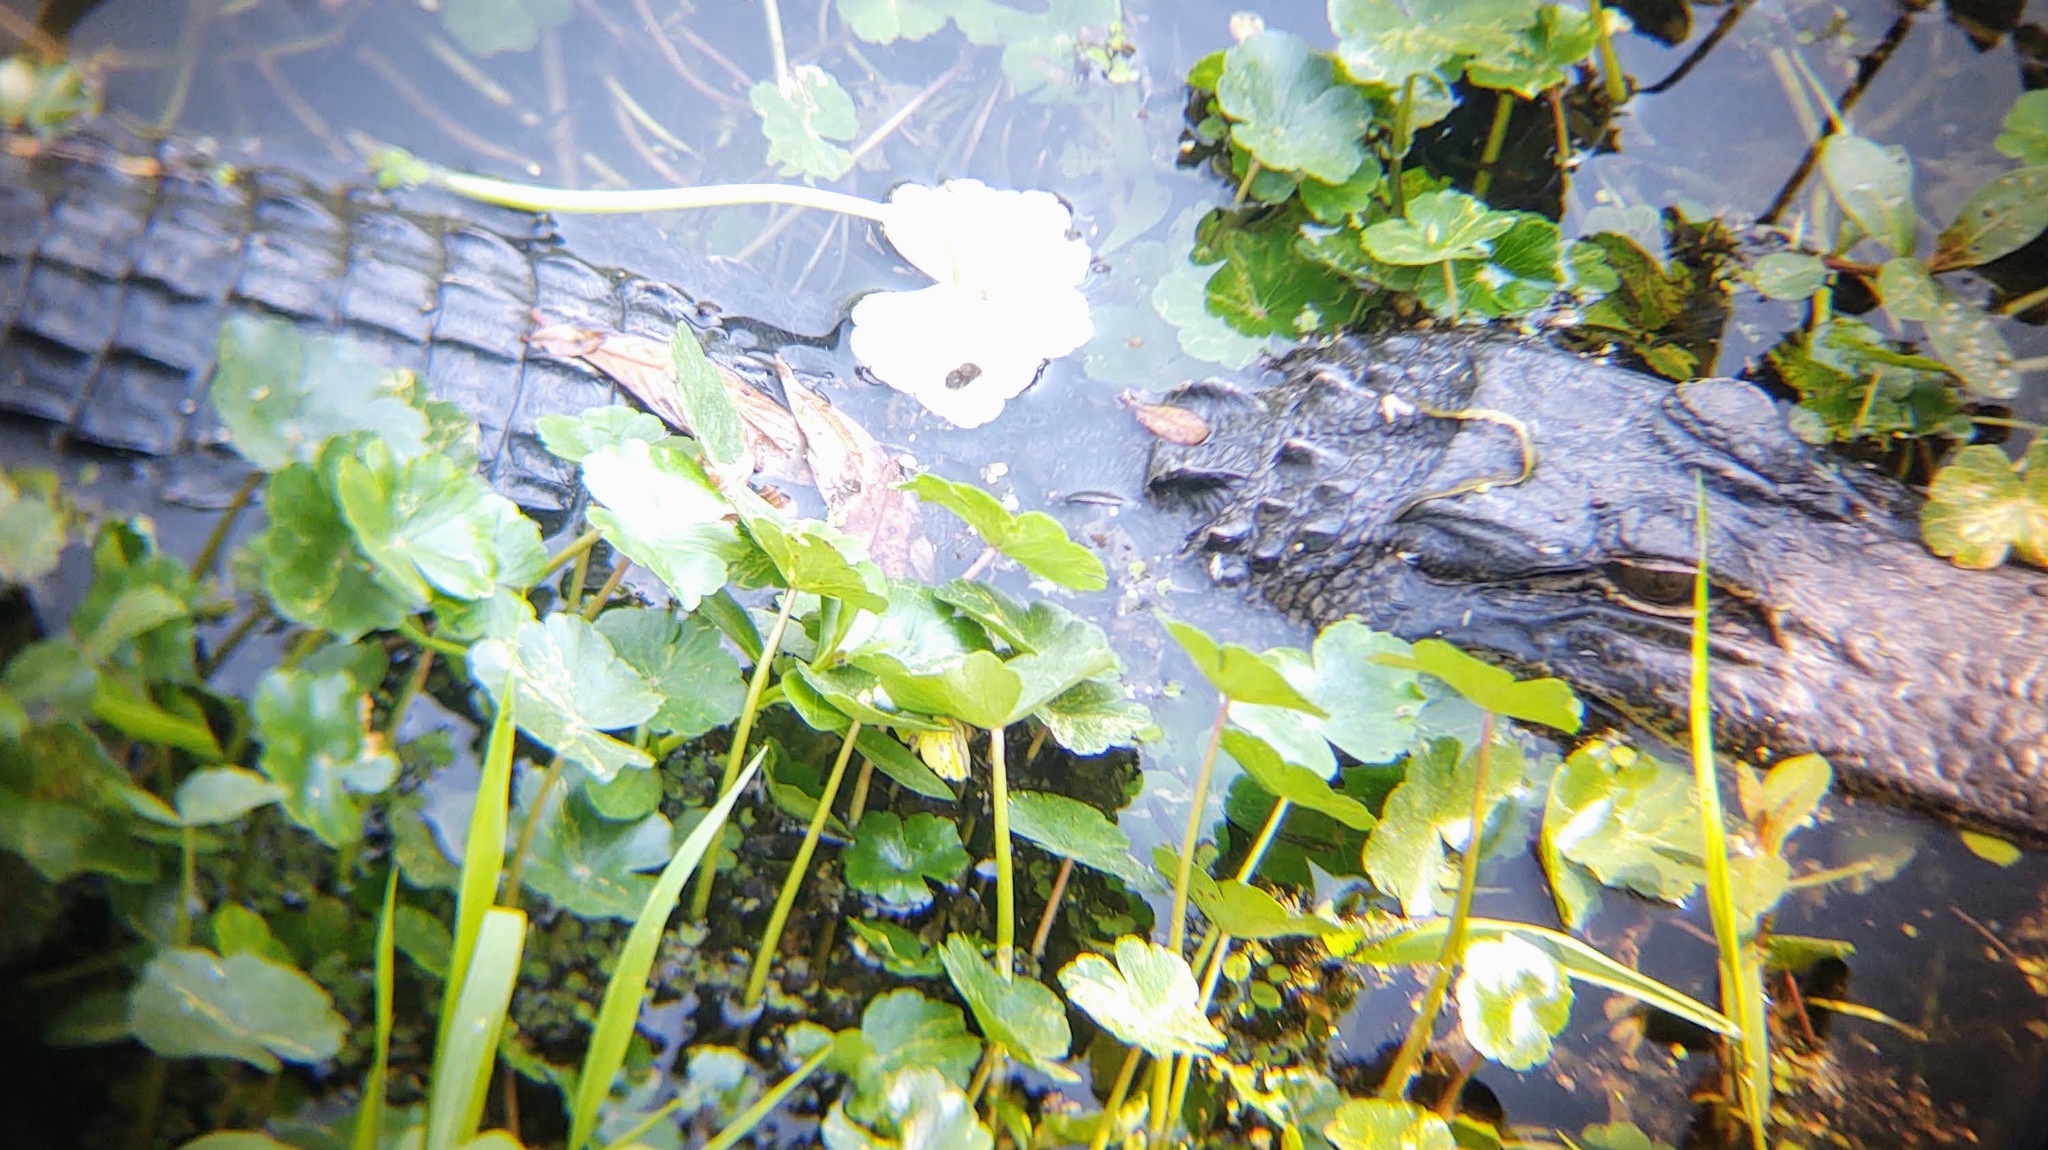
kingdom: Animalia
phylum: Chordata
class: Crocodylia
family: Alligatoridae
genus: Alligator
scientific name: Alligator mississippiensis
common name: American alligator
